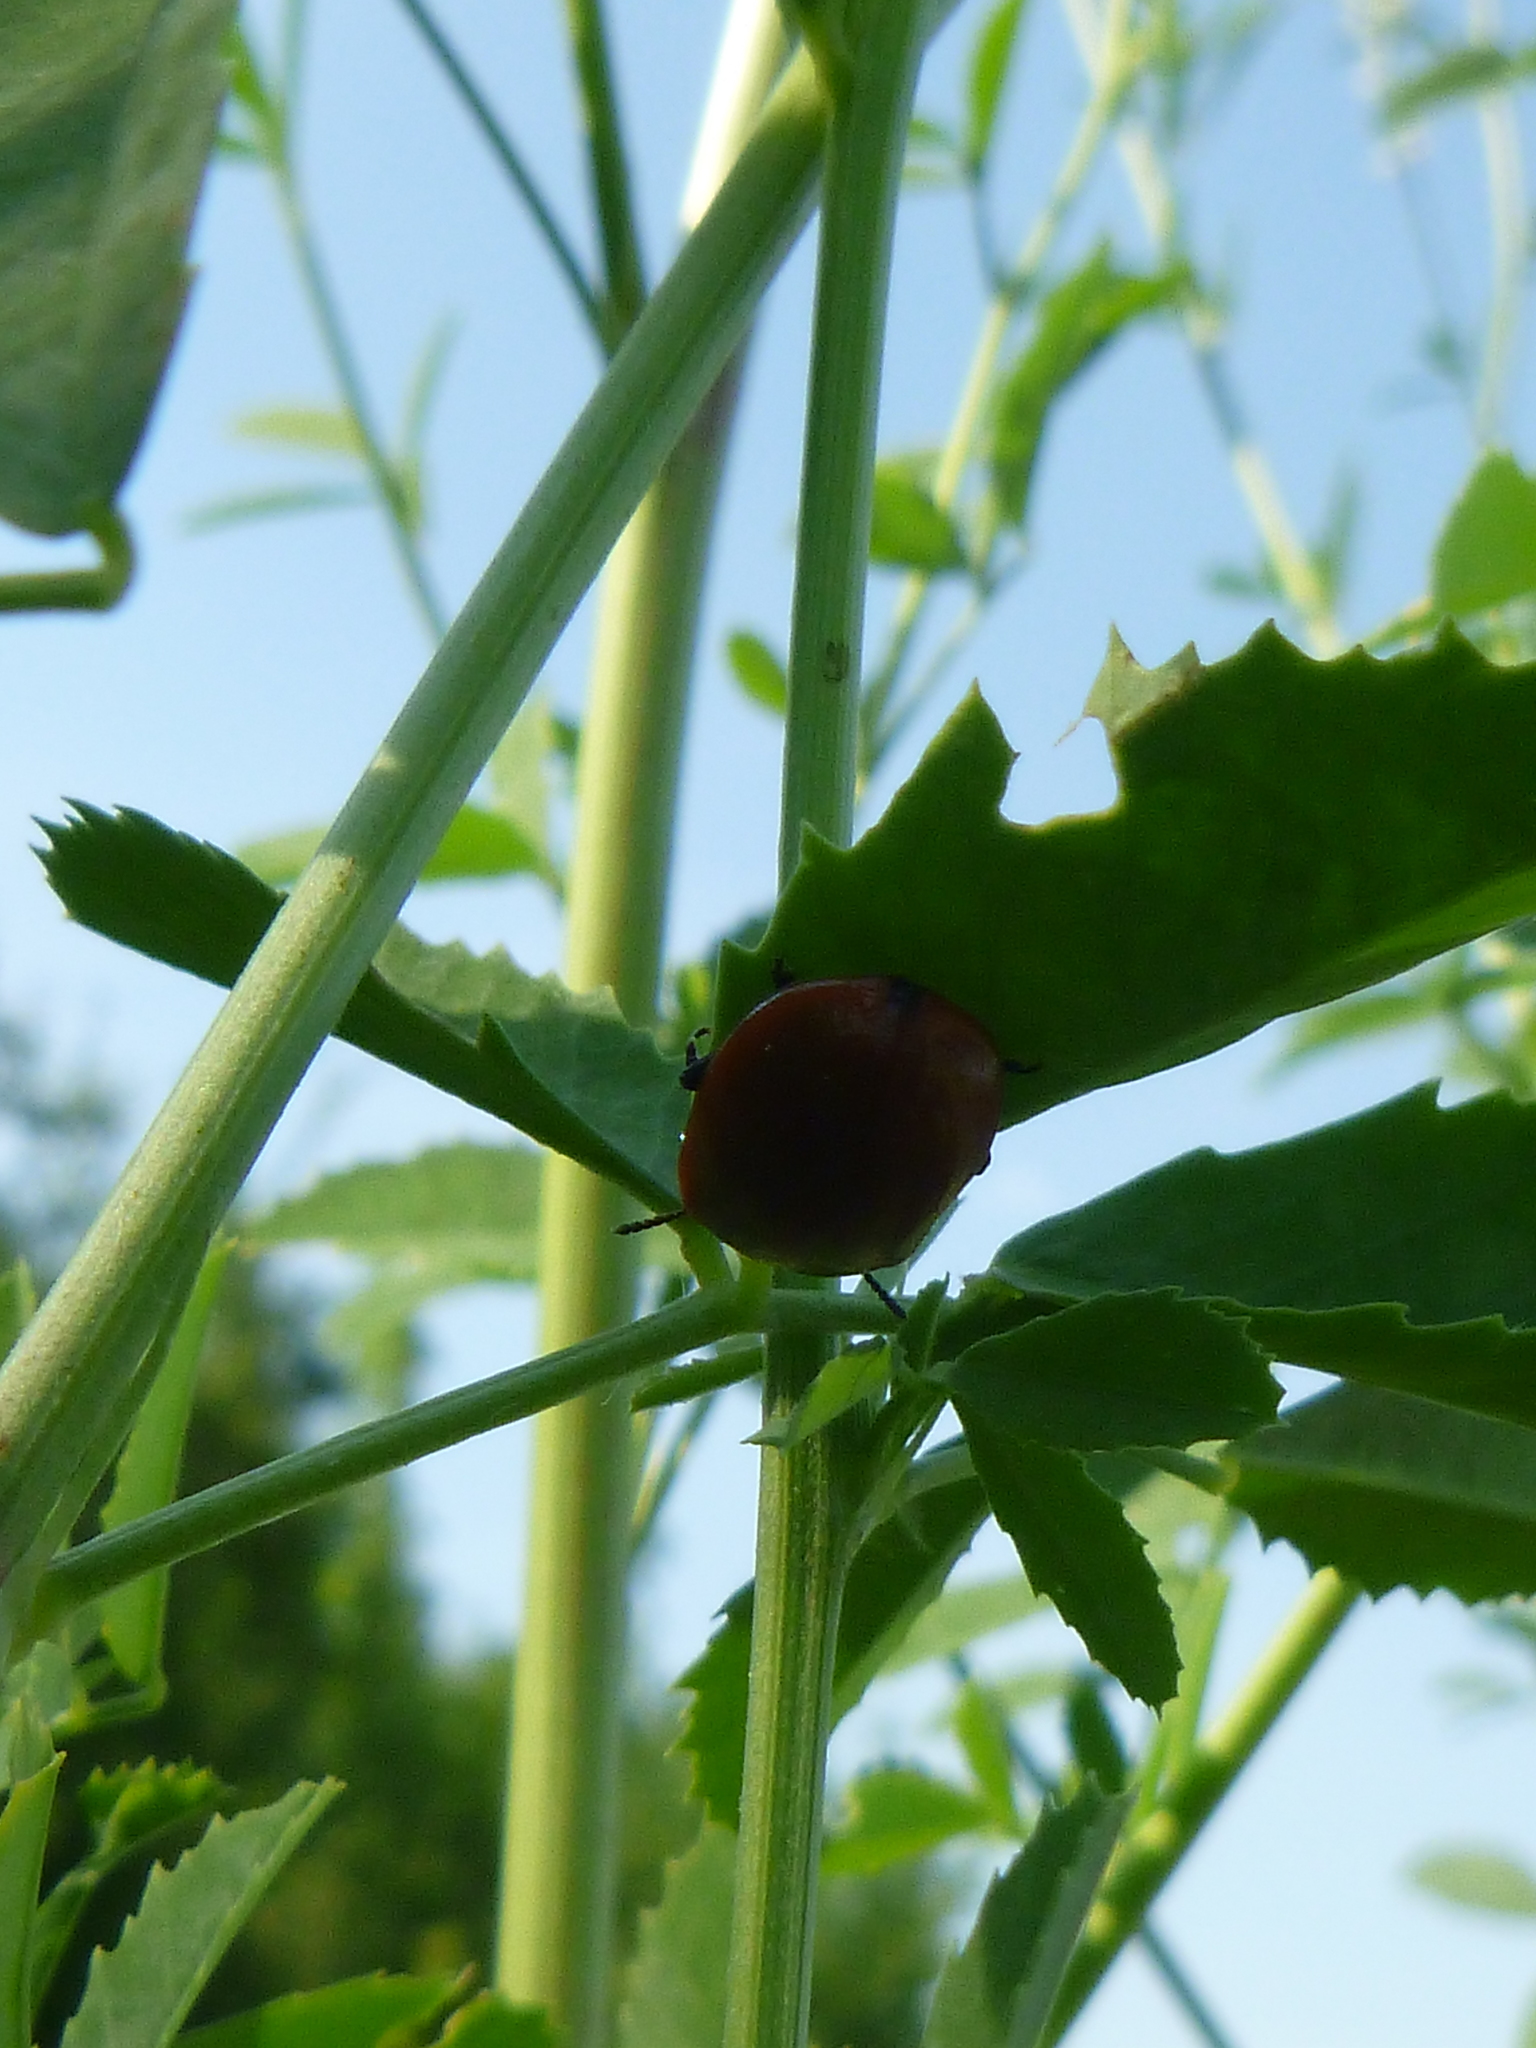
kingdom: Animalia
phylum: Arthropoda
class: Insecta
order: Coleoptera
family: Chrysomelidae
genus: Chrysomela
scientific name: Chrysomela populi
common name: Red poplar leaf beetle
